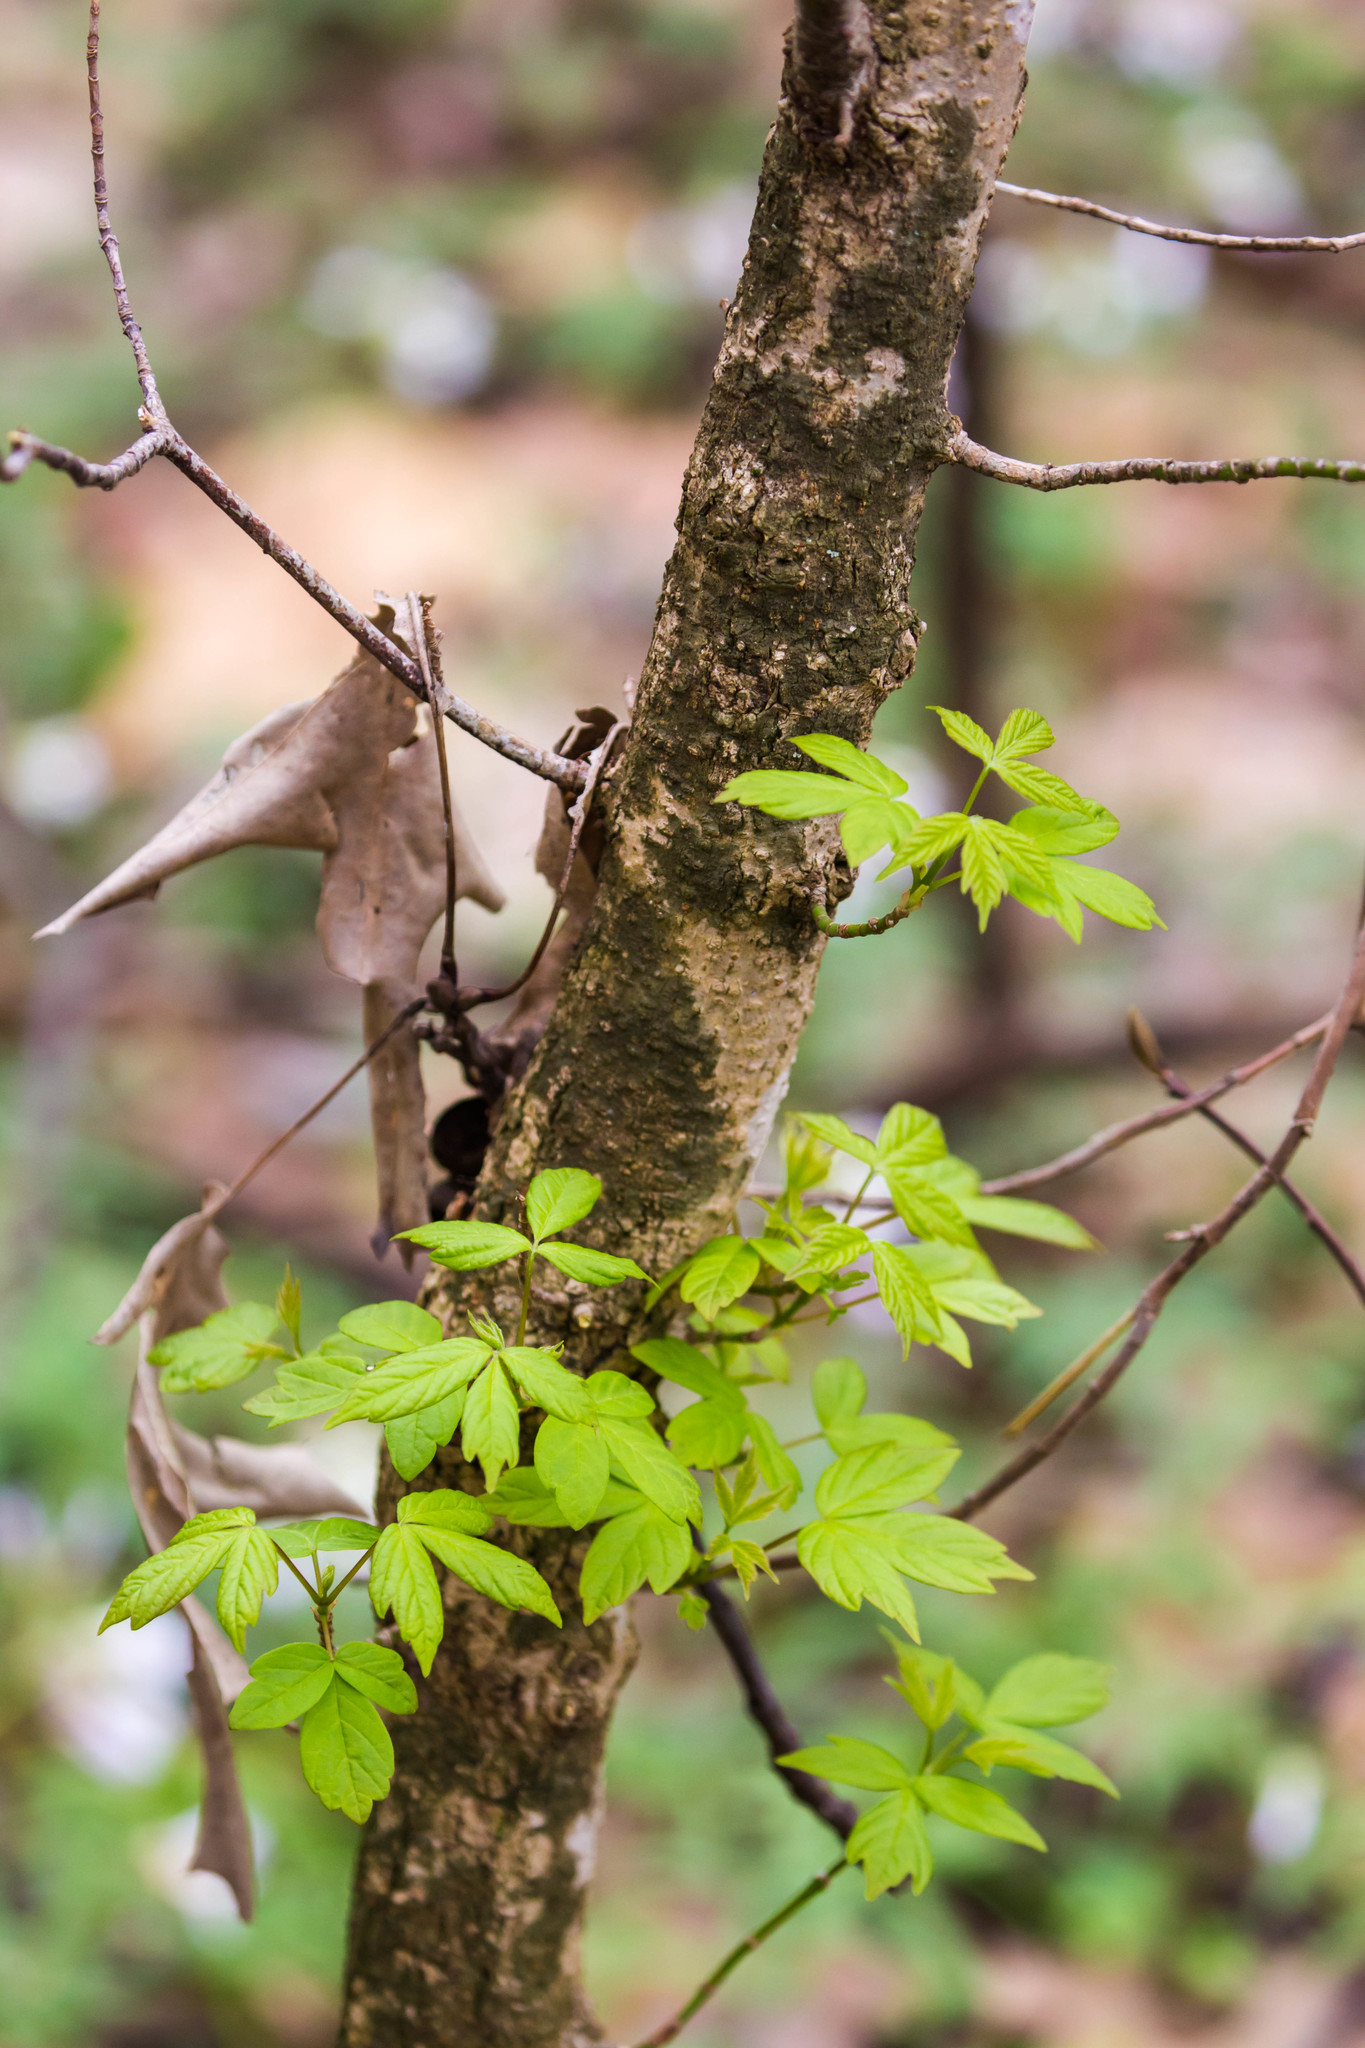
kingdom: Plantae
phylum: Tracheophyta
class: Magnoliopsida
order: Sapindales
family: Sapindaceae
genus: Acer
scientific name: Acer negundo
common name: Ashleaf maple
